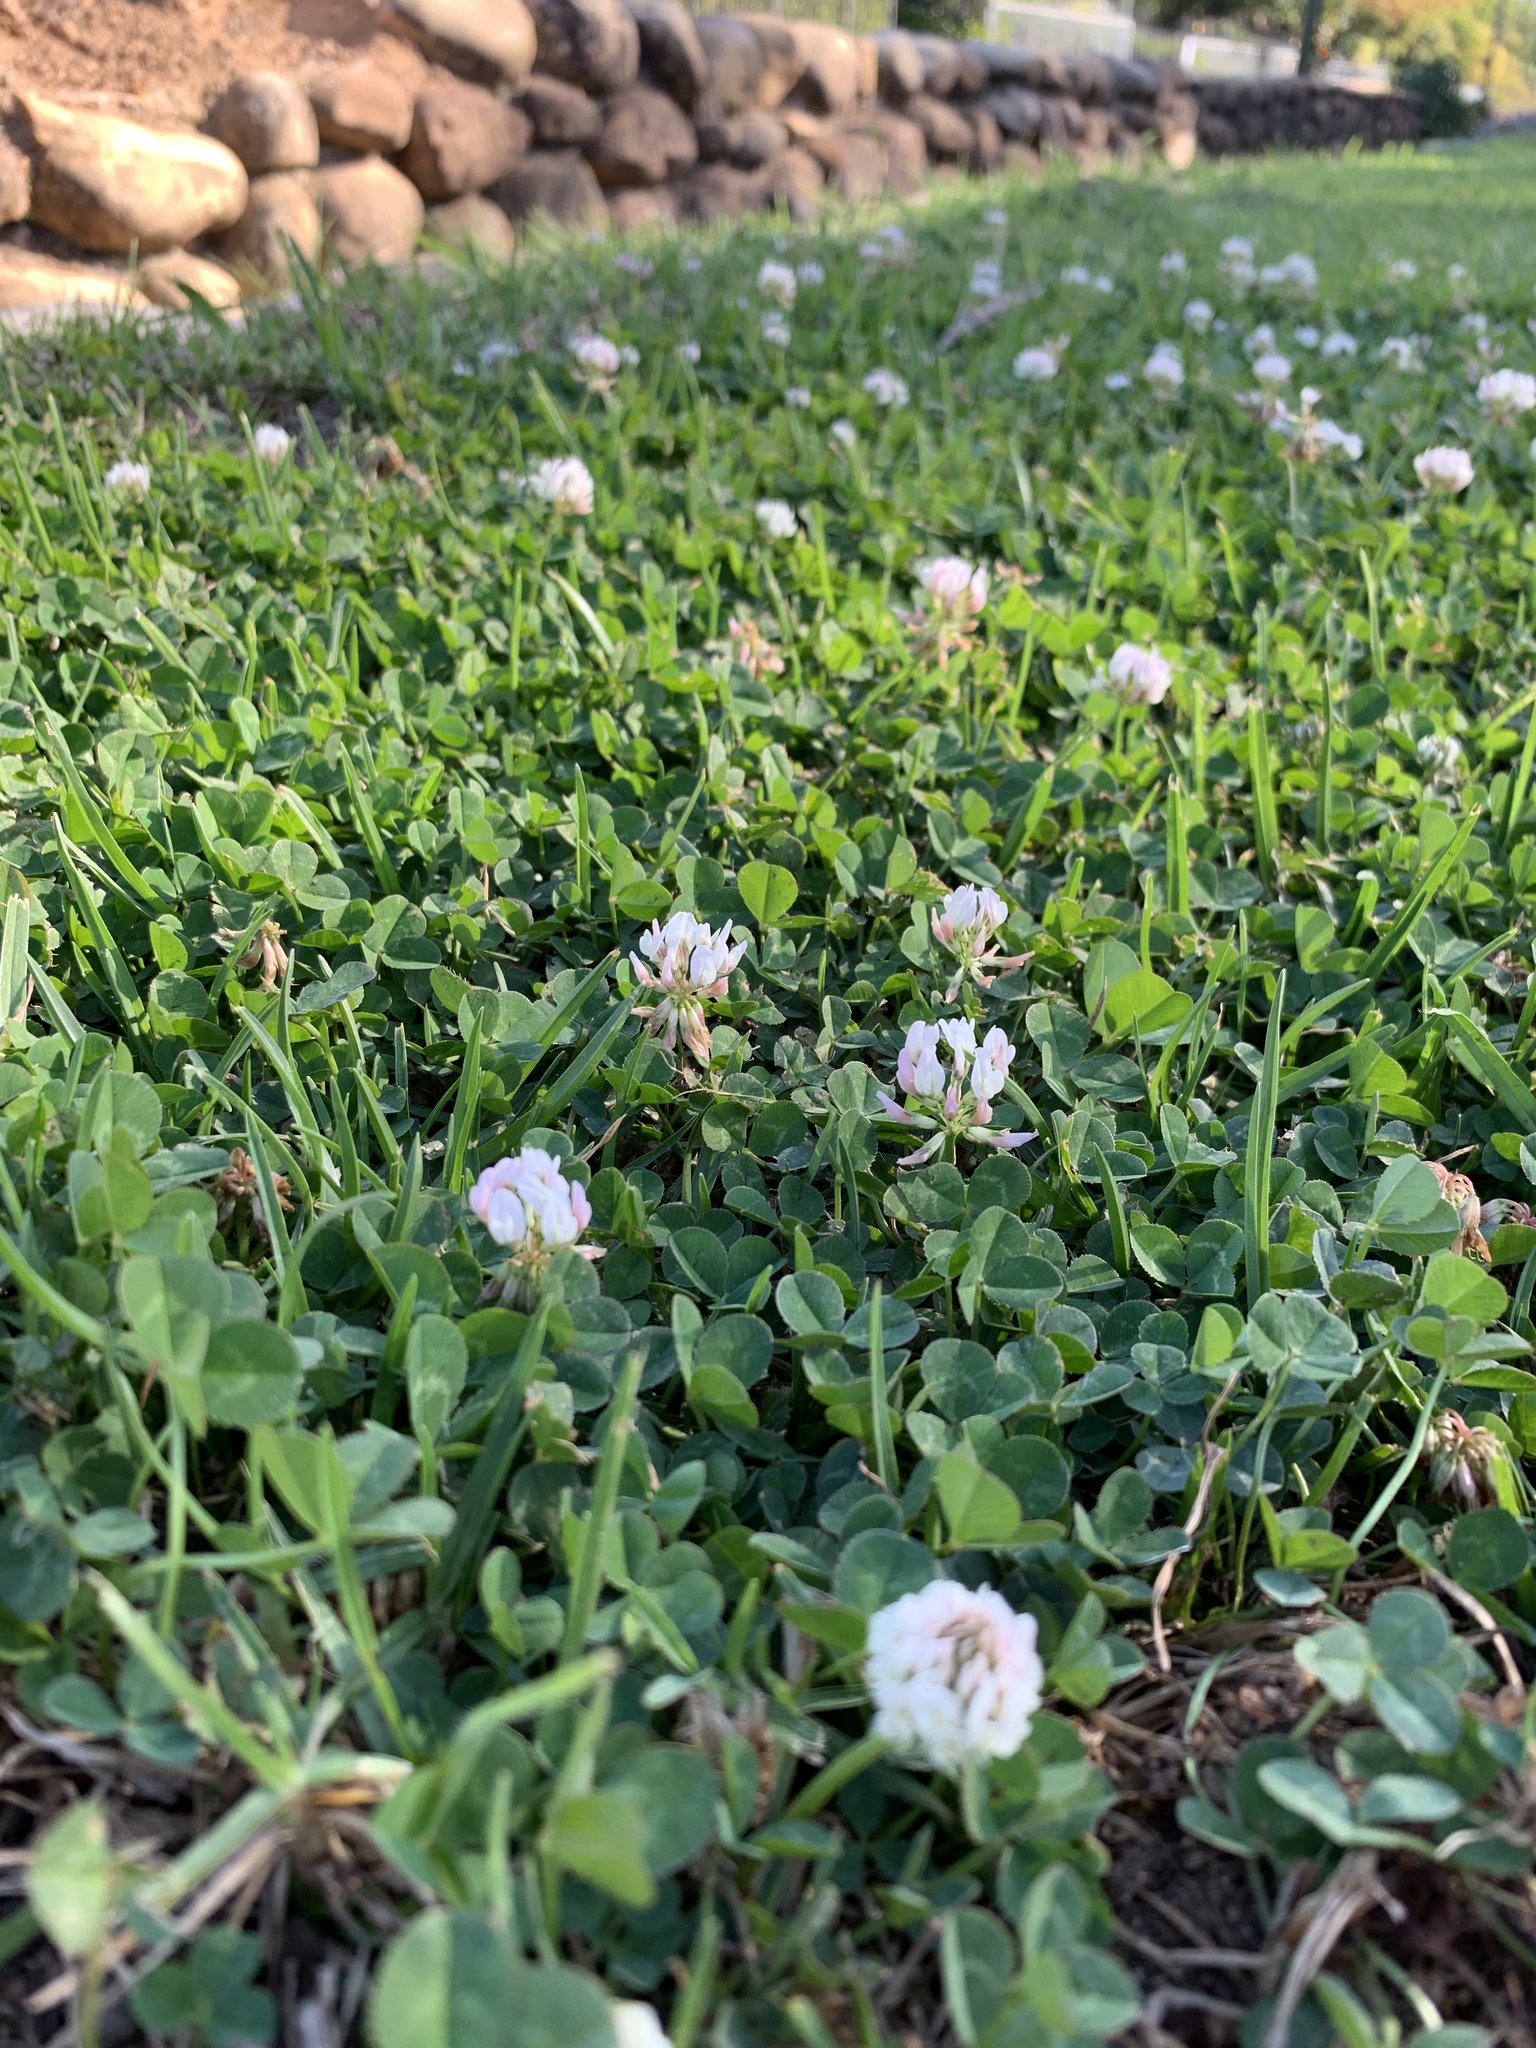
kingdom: Plantae
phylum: Tracheophyta
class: Magnoliopsida
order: Fabales
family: Fabaceae
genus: Trifolium
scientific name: Trifolium repens
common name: White clover
